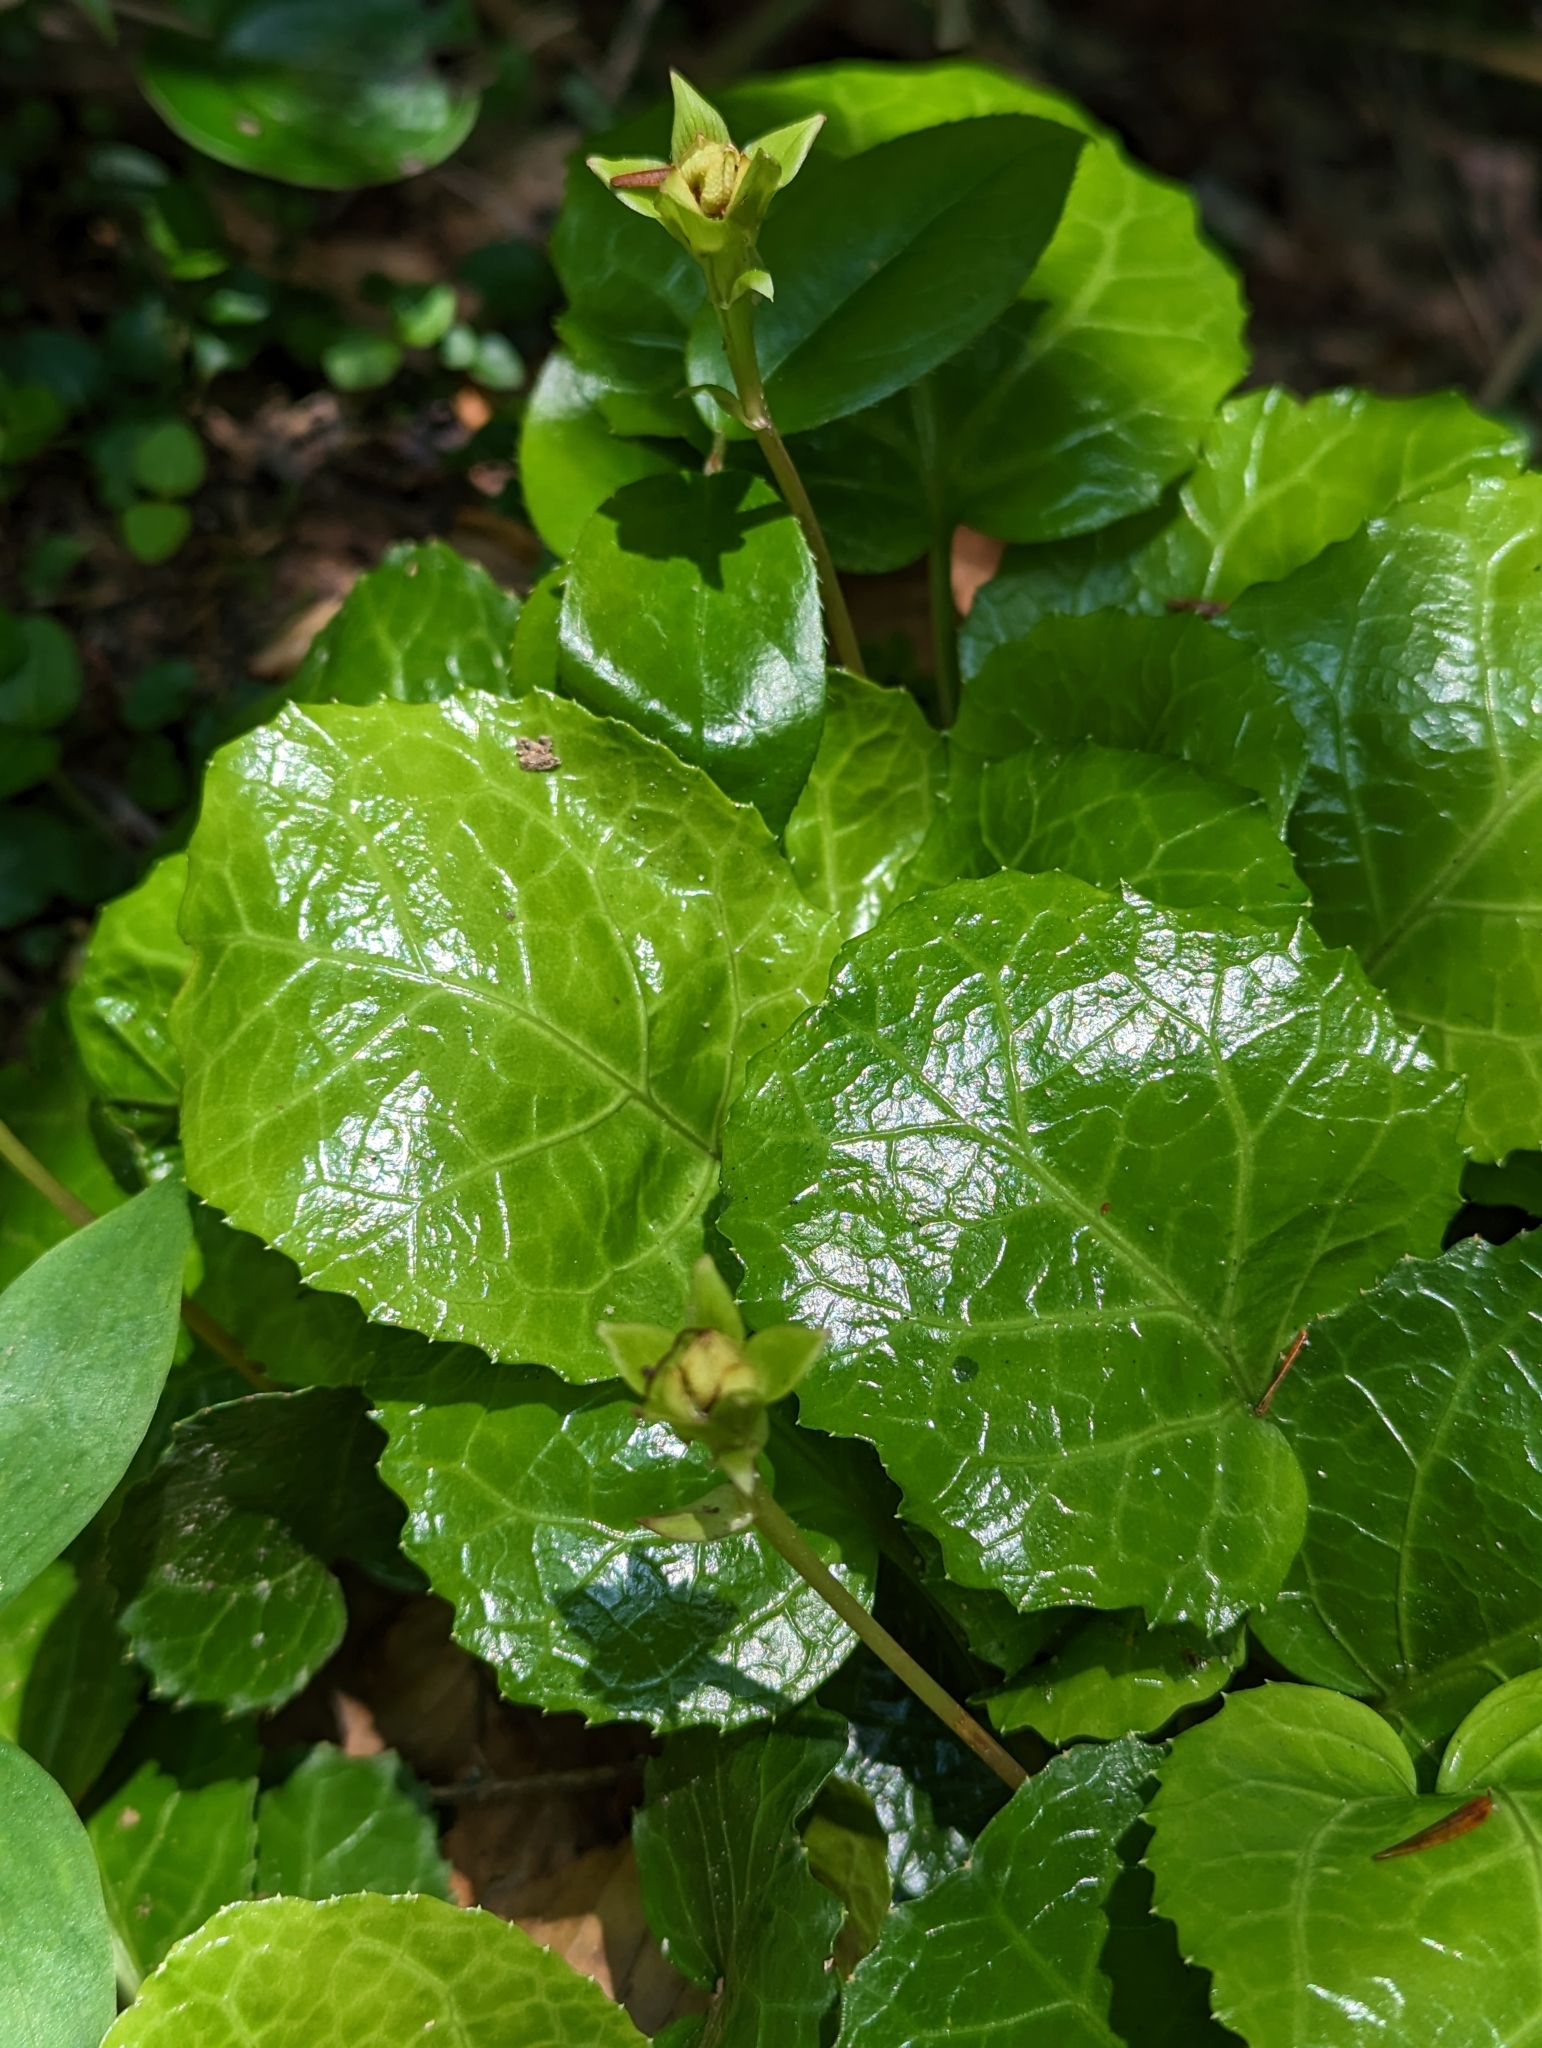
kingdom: Plantae
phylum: Tracheophyta
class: Magnoliopsida
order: Ericales
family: Diapensiaceae
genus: Shortia
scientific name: Shortia galacifolia
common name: Shortia
